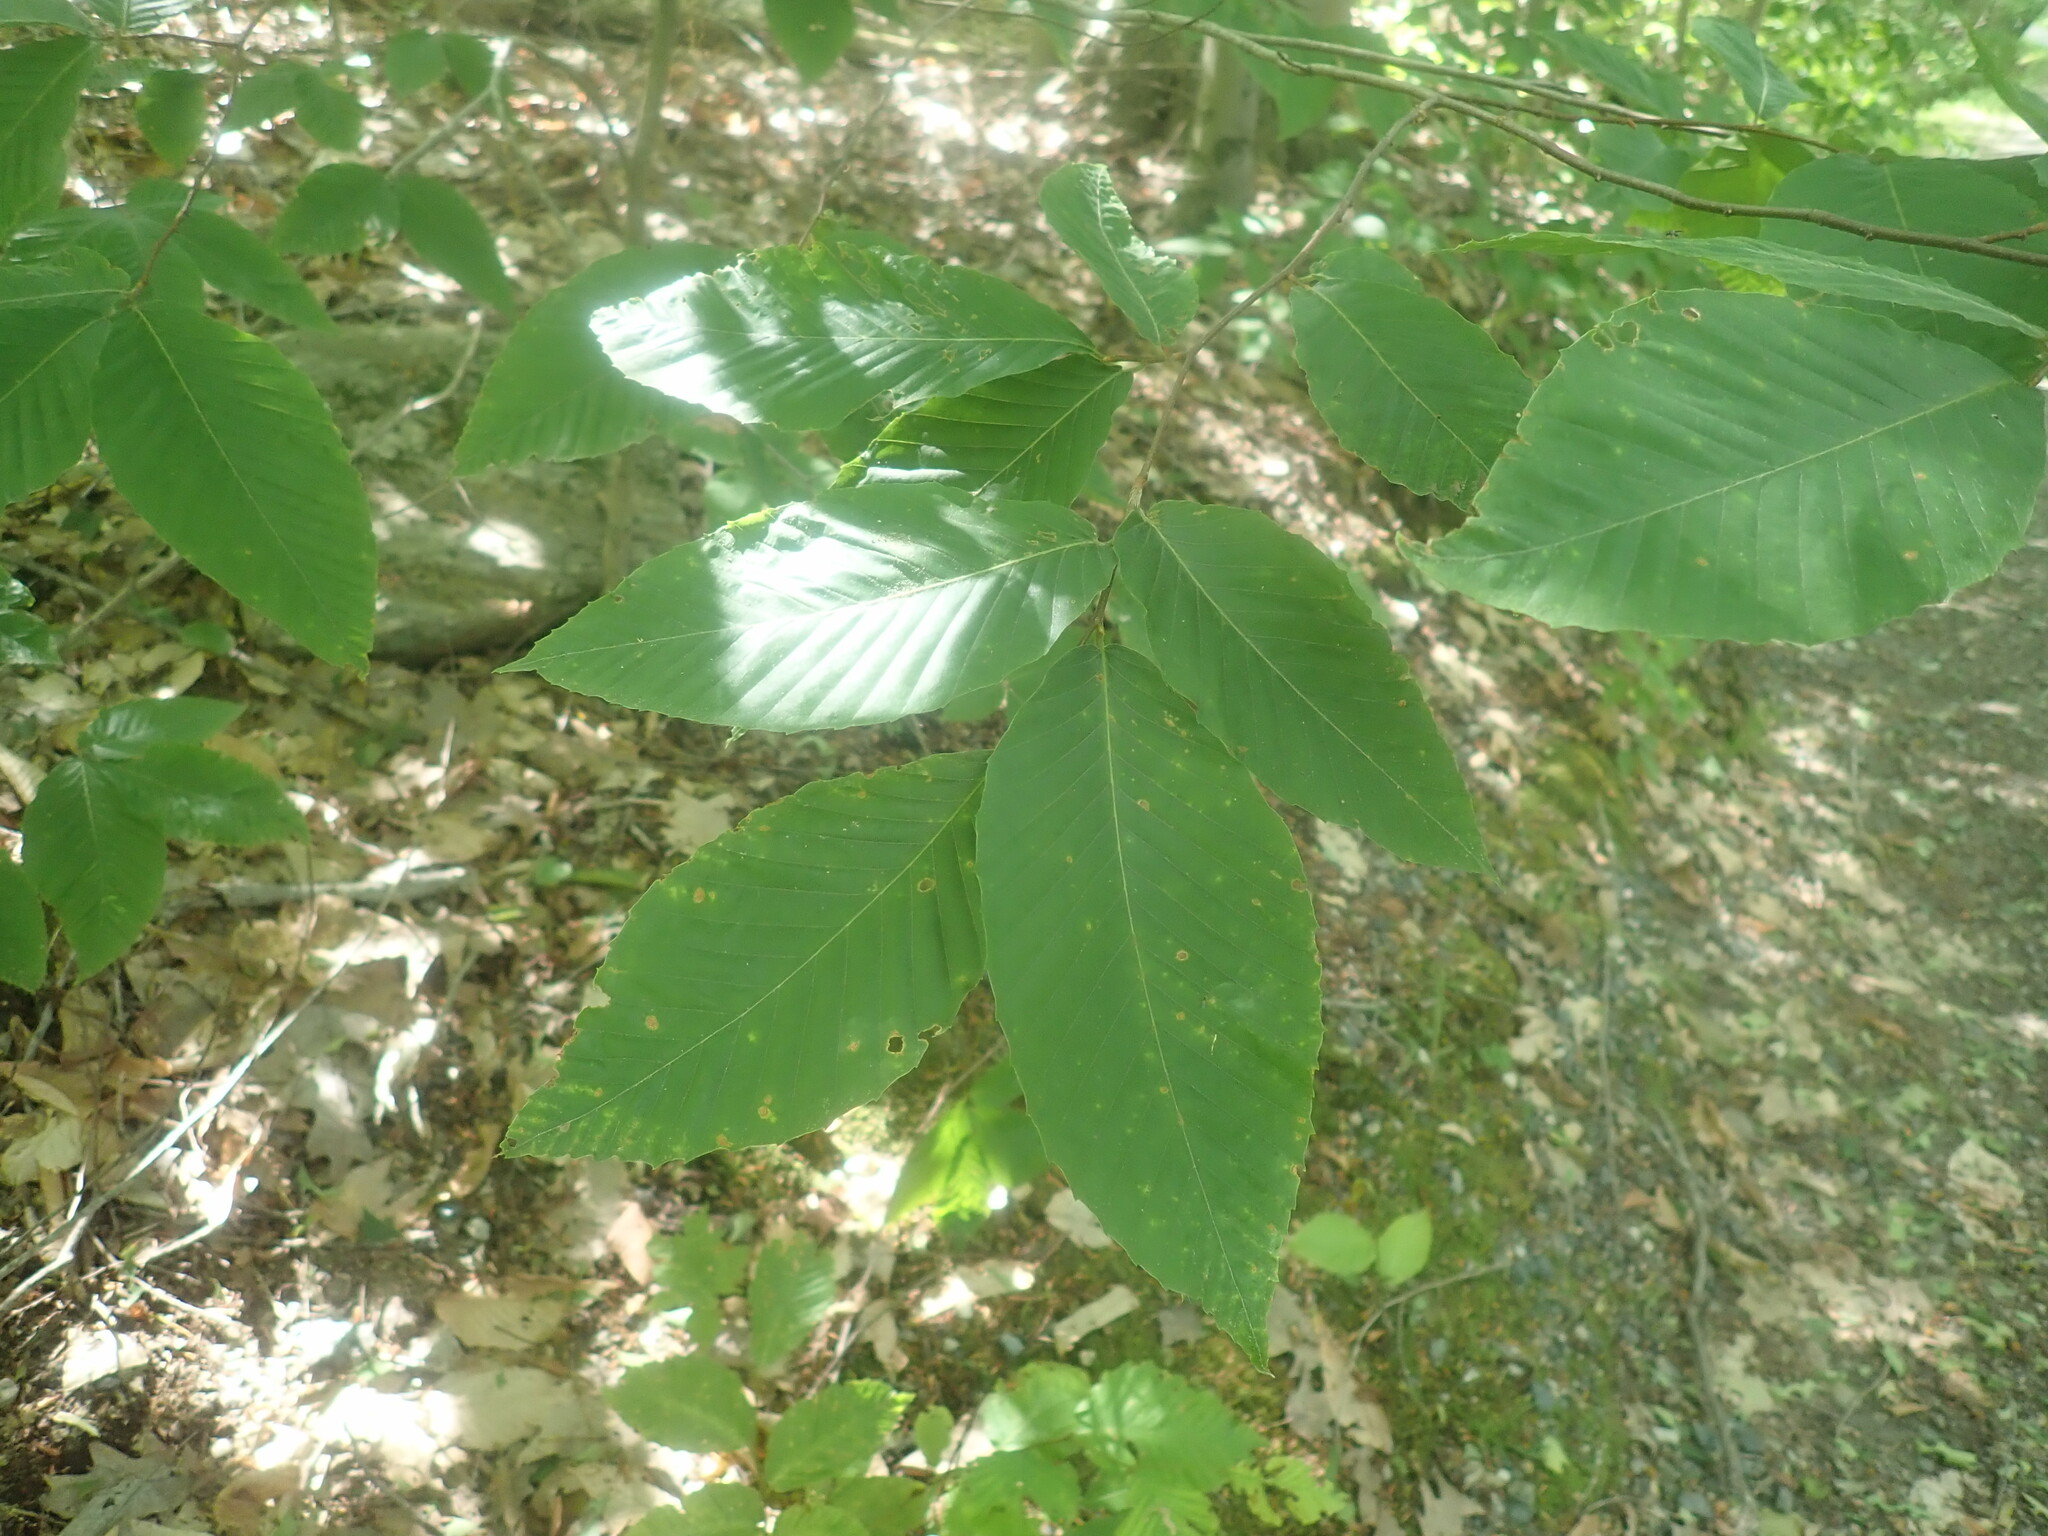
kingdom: Plantae
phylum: Tracheophyta
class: Magnoliopsida
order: Fagales
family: Fagaceae
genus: Fagus
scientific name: Fagus grandifolia
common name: American beech
